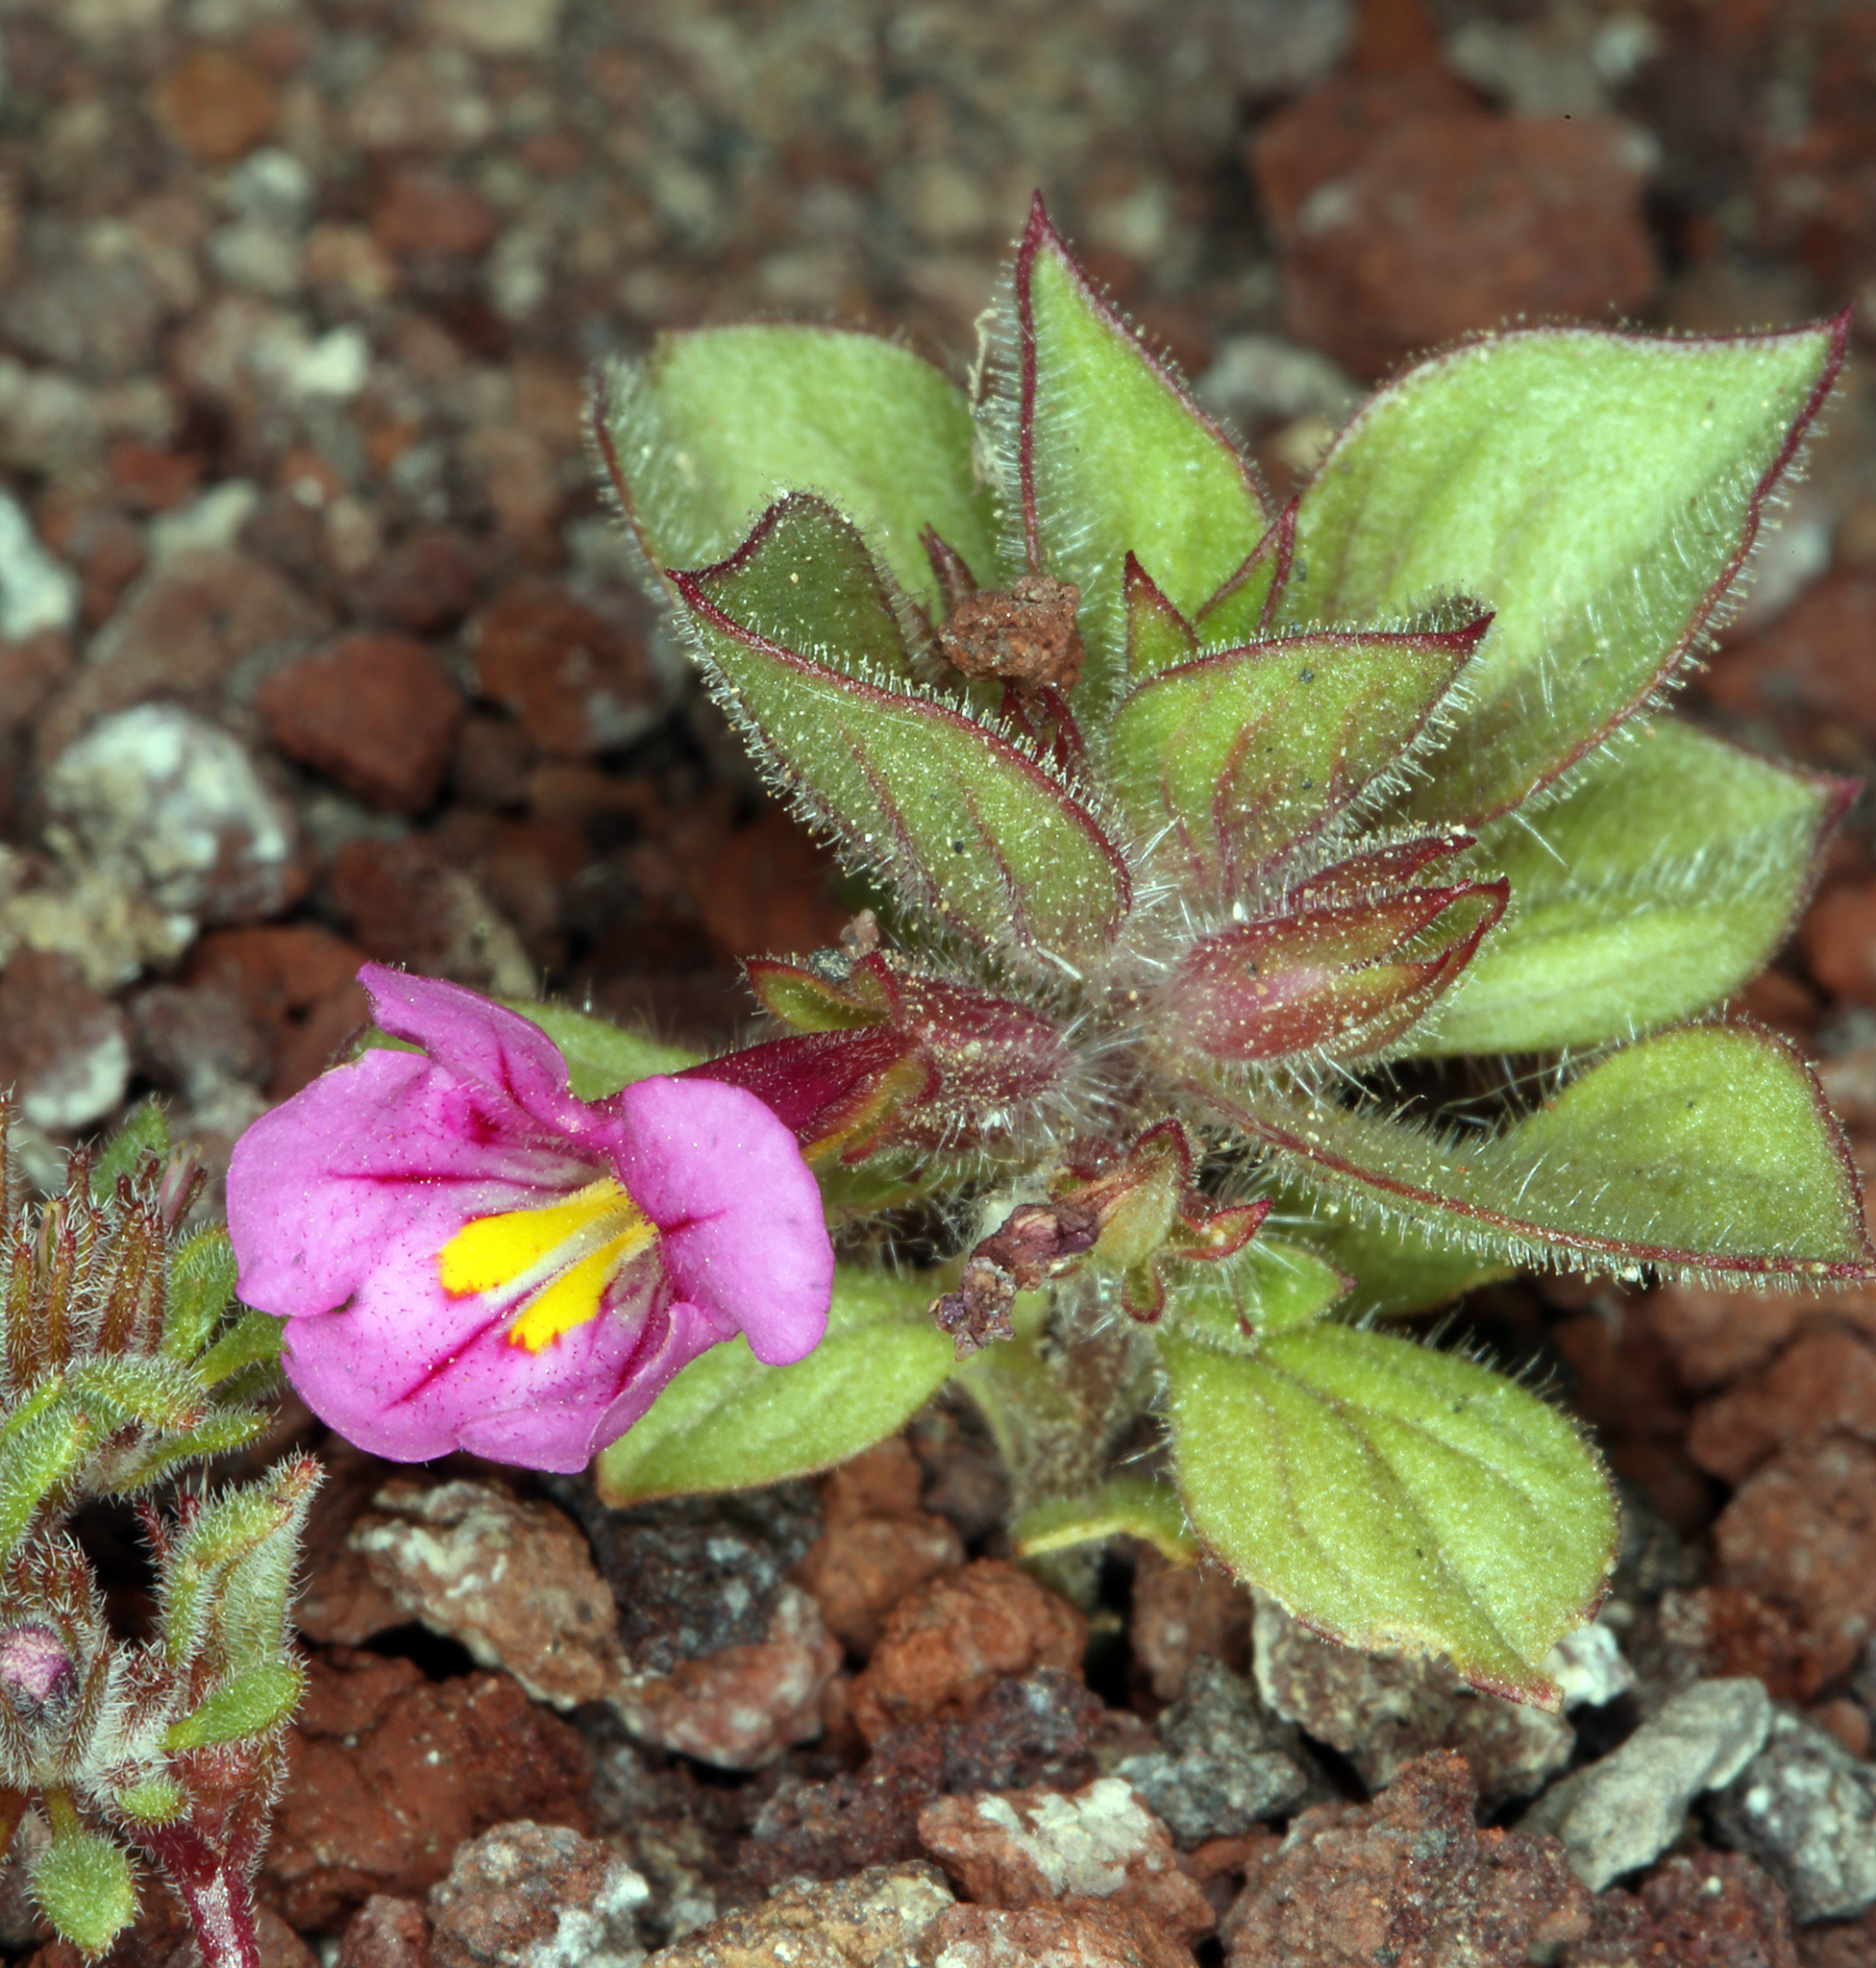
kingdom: Plantae
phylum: Tracheophyta
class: Magnoliopsida
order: Lamiales
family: Phrymaceae
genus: Diplacus
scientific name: Diplacus bigelovii
